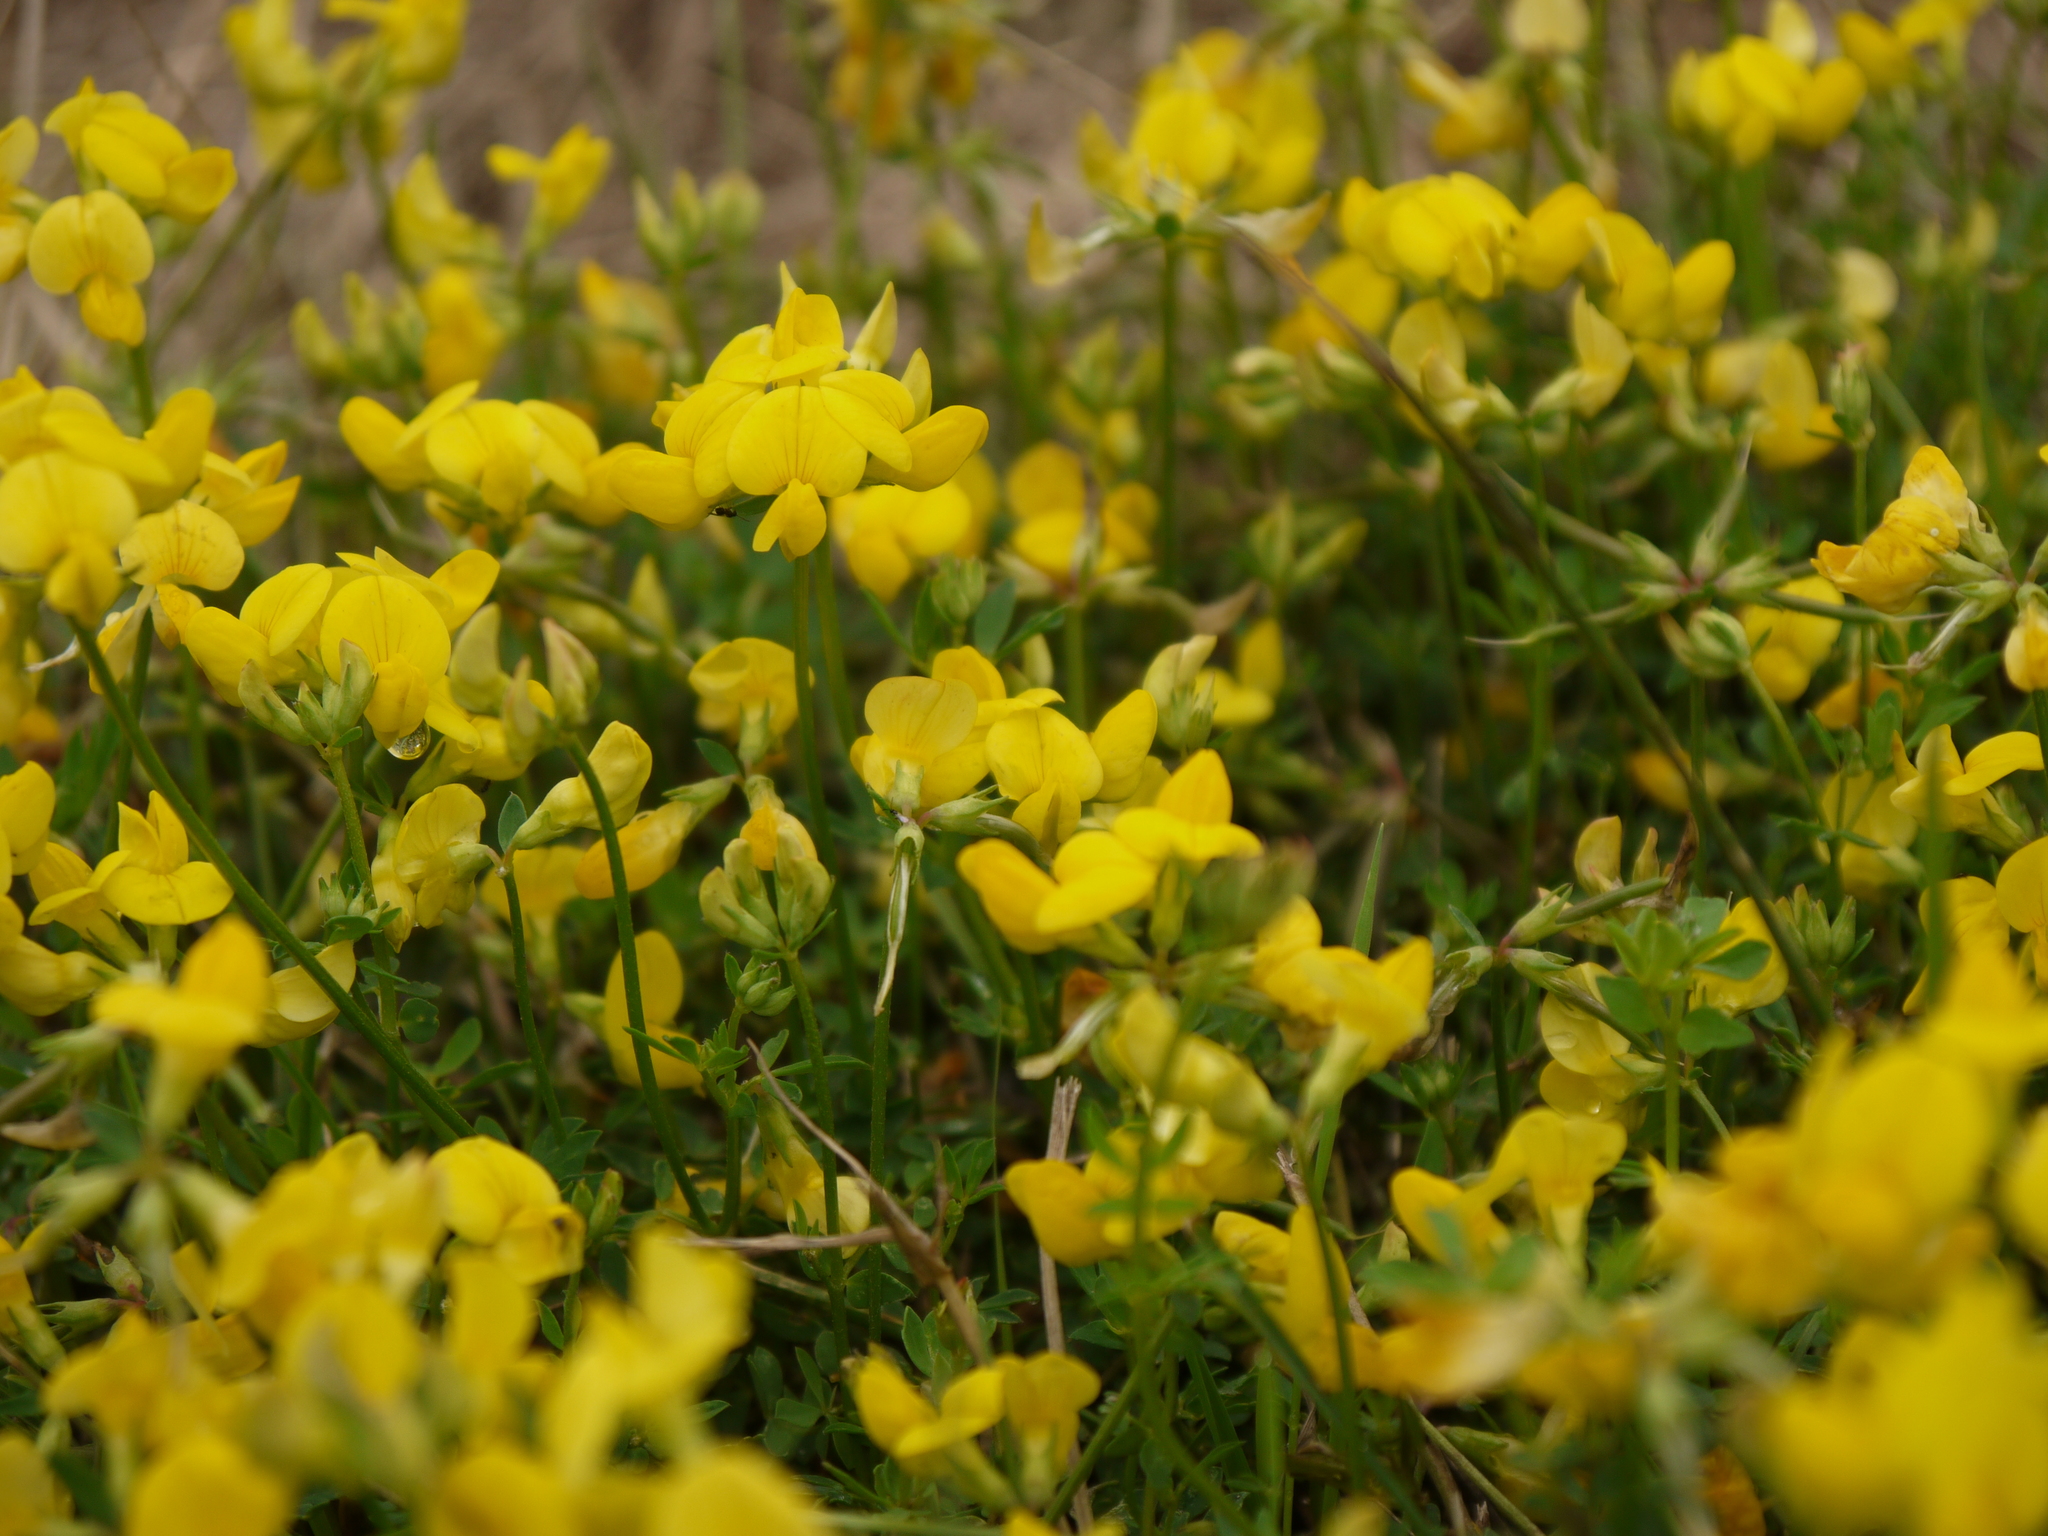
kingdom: Plantae
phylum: Tracheophyta
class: Magnoliopsida
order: Fabales
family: Fabaceae
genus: Lotus
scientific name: Lotus corniculatus
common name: Common bird's-foot-trefoil
